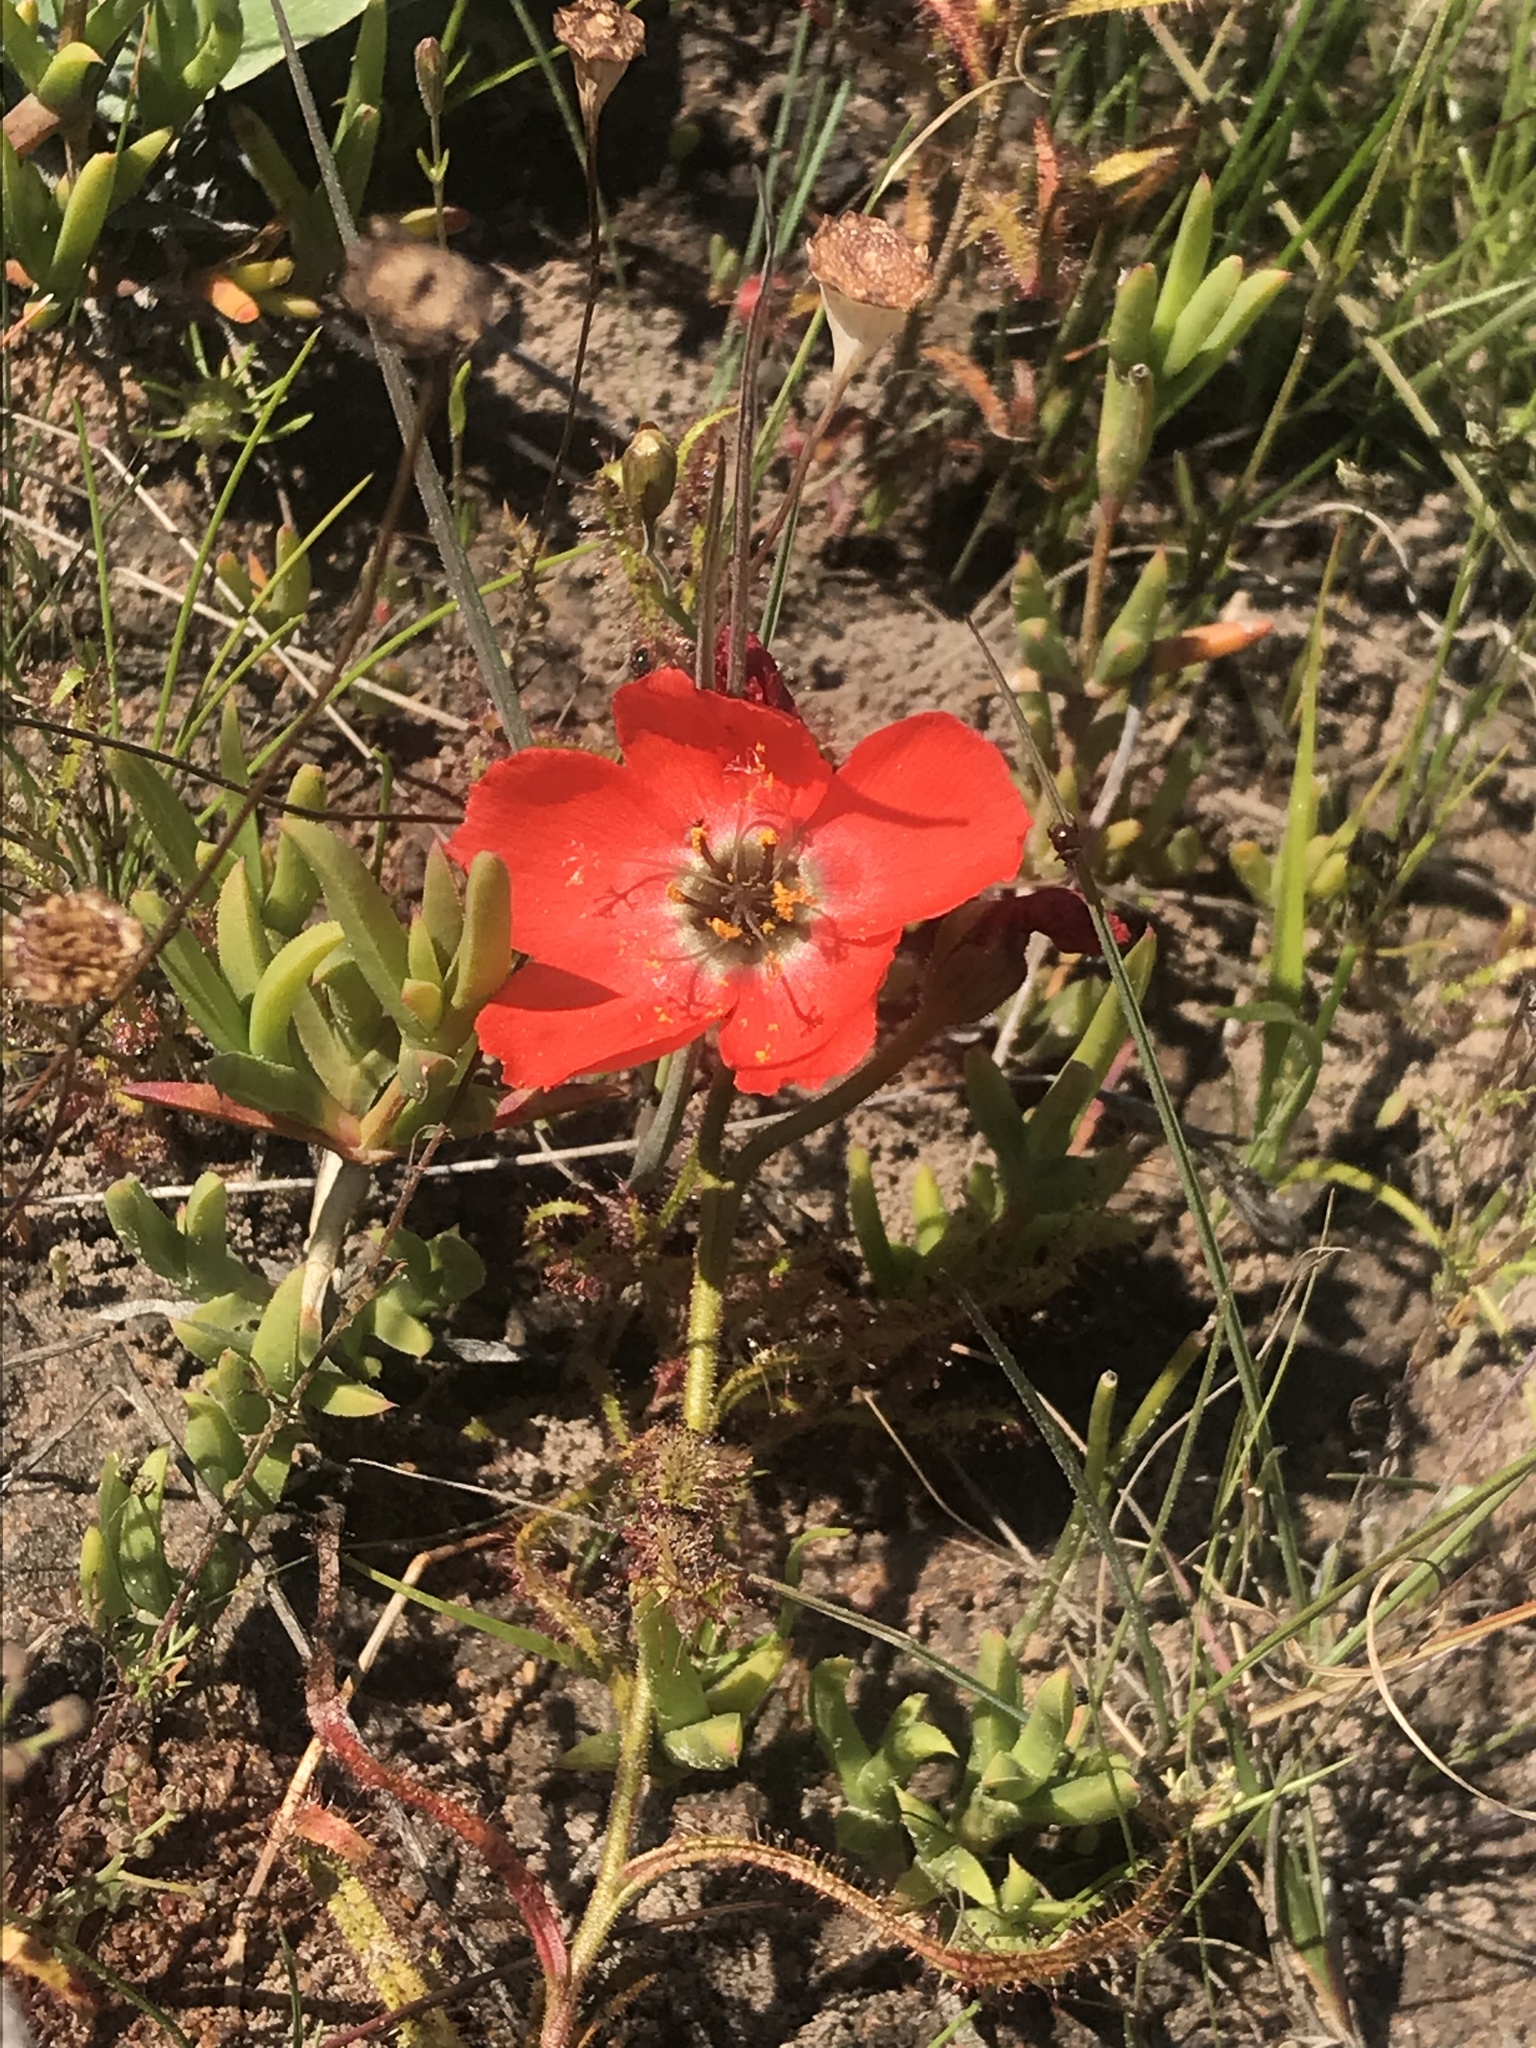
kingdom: Plantae
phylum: Tracheophyta
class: Magnoliopsida
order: Caryophyllales
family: Droseraceae
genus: Drosera
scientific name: Drosera cistiflora
